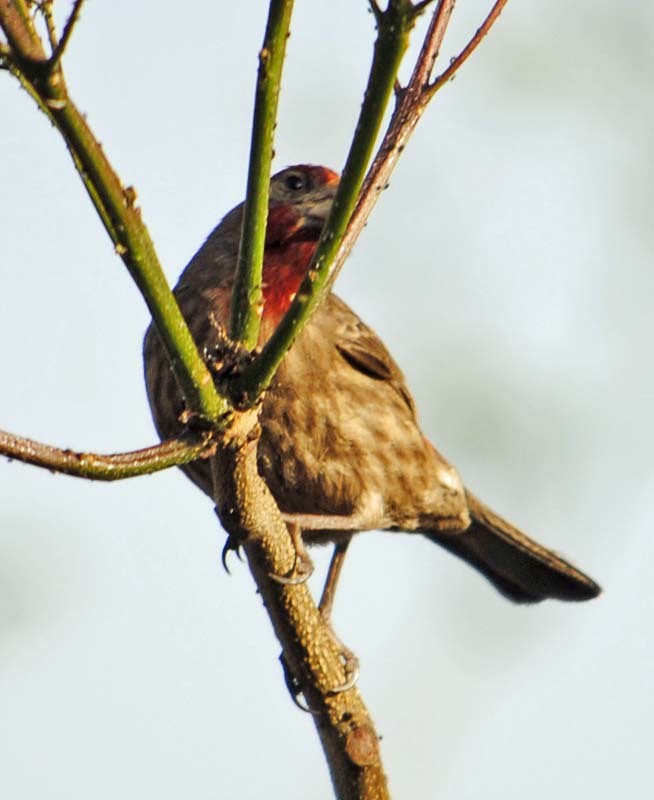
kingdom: Animalia
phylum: Chordata
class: Aves
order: Passeriformes
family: Fringillidae
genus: Haemorhous
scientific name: Haemorhous mexicanus
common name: House finch
